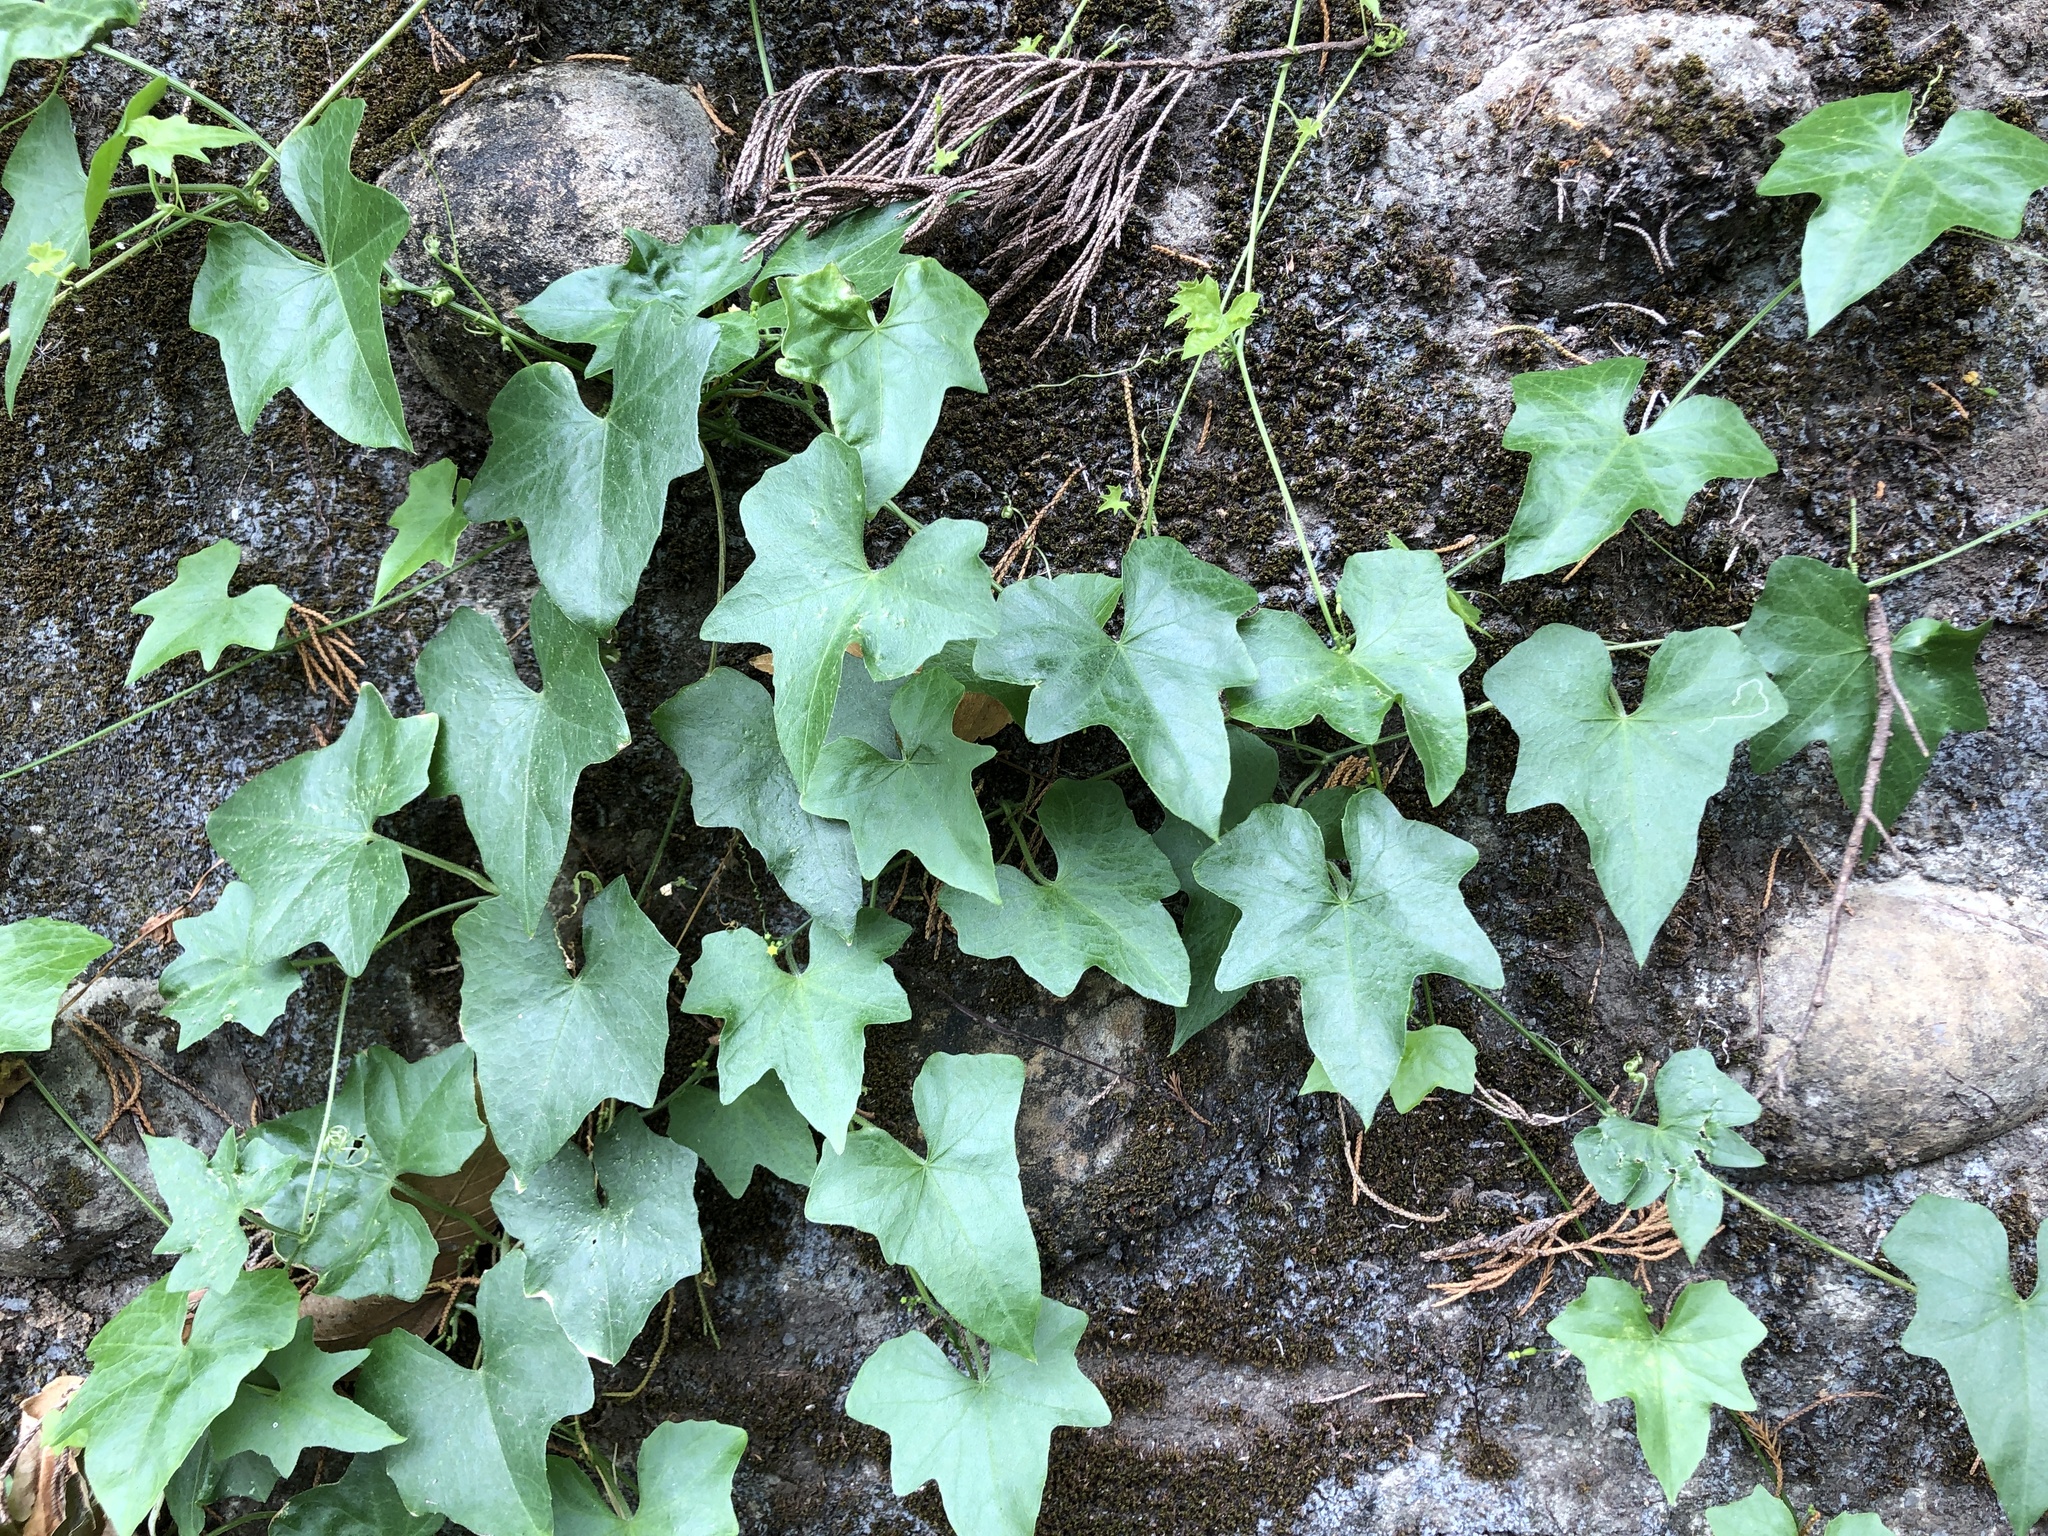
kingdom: Plantae
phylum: Tracheophyta
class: Magnoliopsida
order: Cucurbitales
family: Cucurbitaceae
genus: Melothria
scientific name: Melothria pendula
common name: Creeping-cucumber
